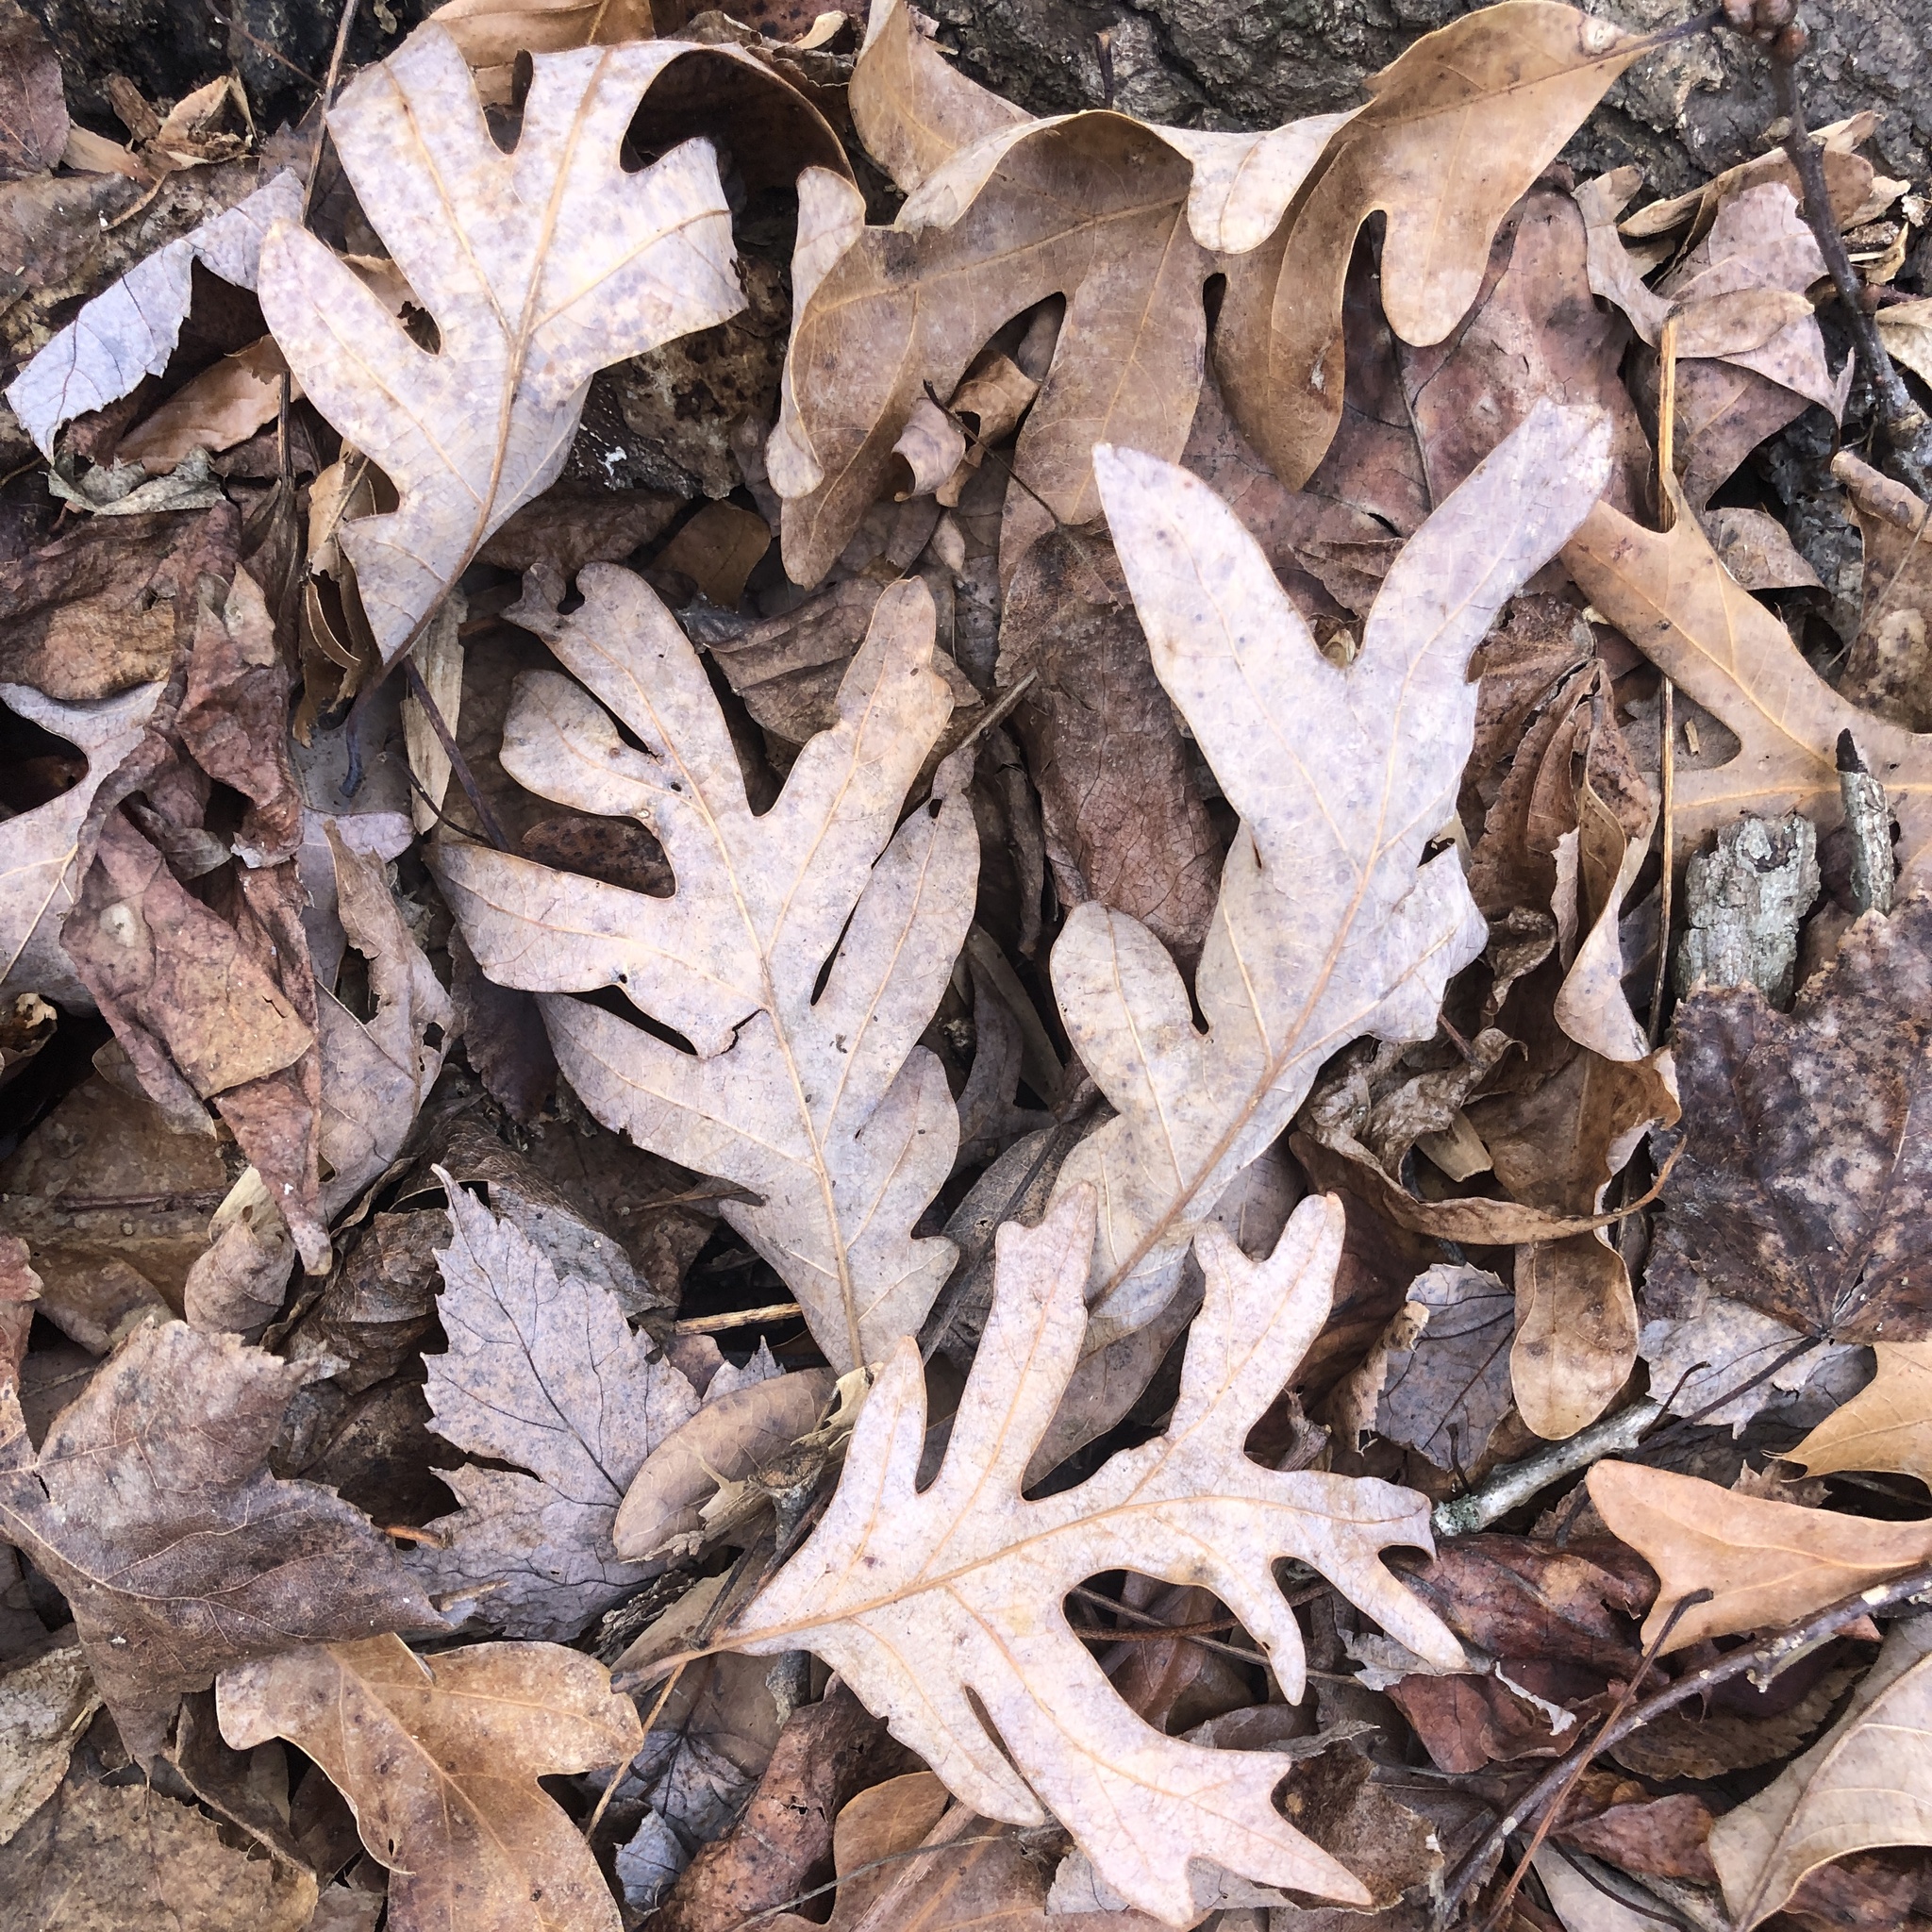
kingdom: Plantae
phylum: Tracheophyta
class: Magnoliopsida
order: Fagales
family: Fagaceae
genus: Quercus
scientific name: Quercus alba
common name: White oak
